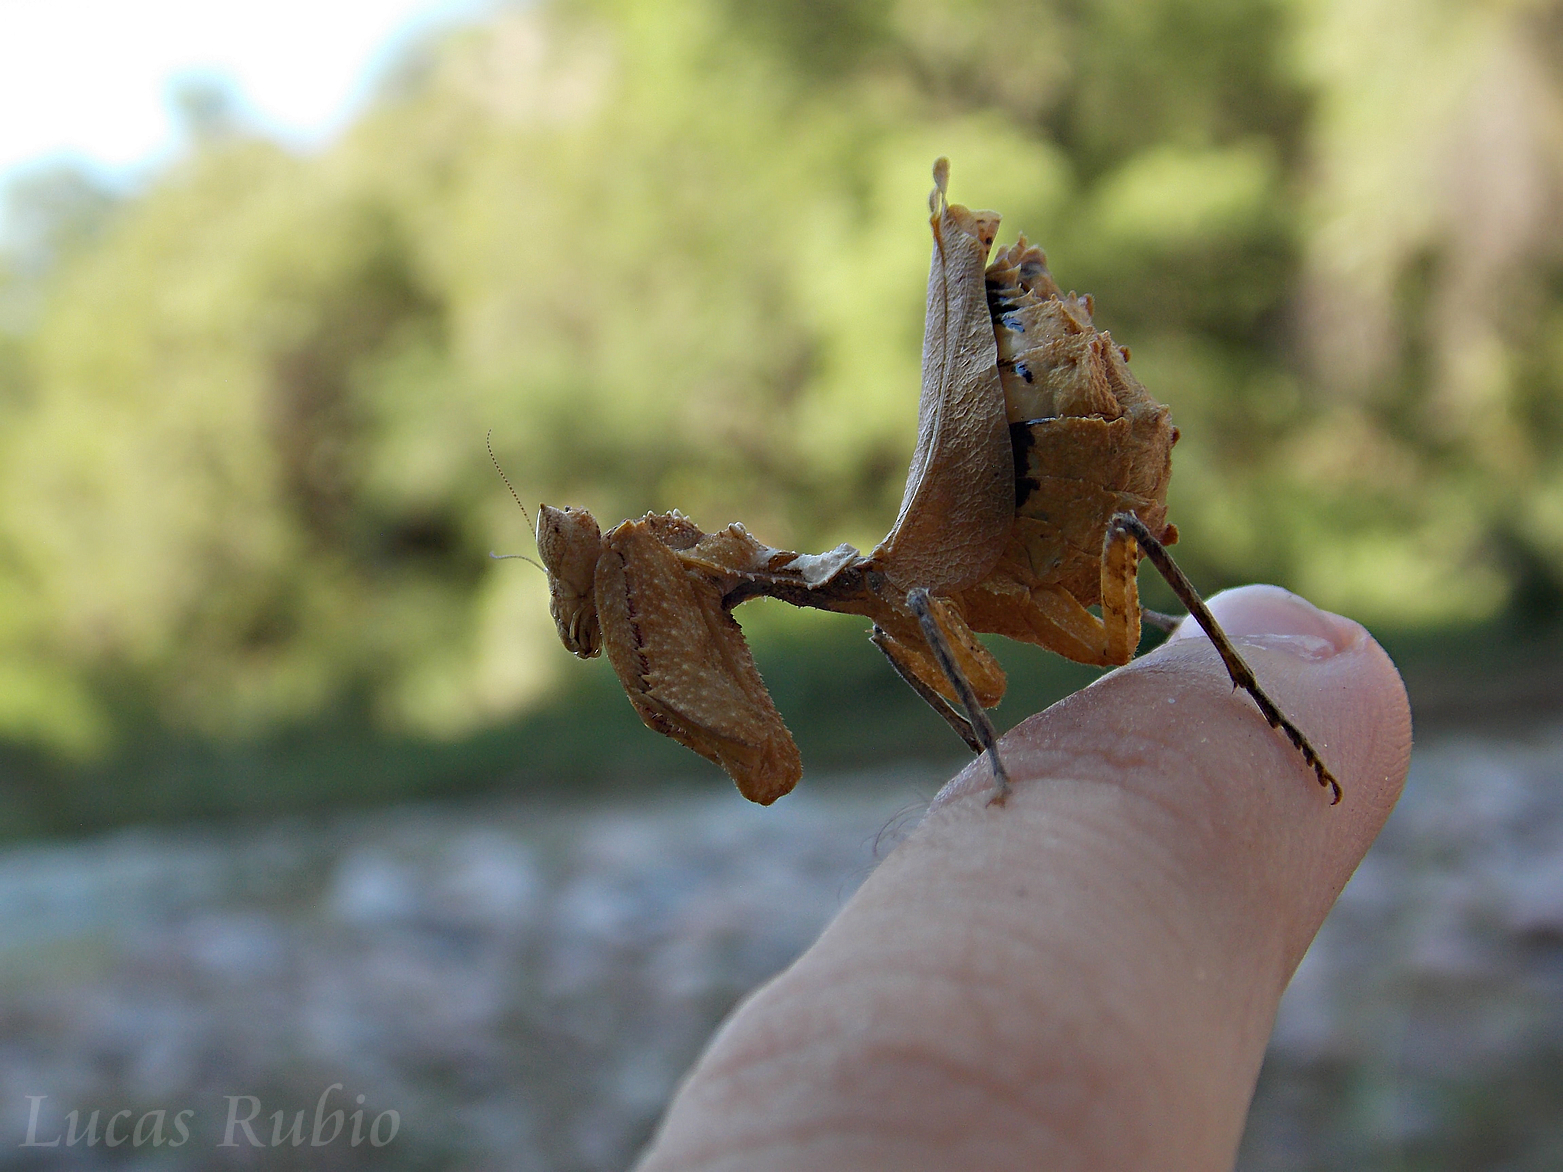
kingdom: Animalia
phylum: Arthropoda
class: Insecta
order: Mantodea
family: Acanthopidae
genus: Decimiana
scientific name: Decimiana rehni
